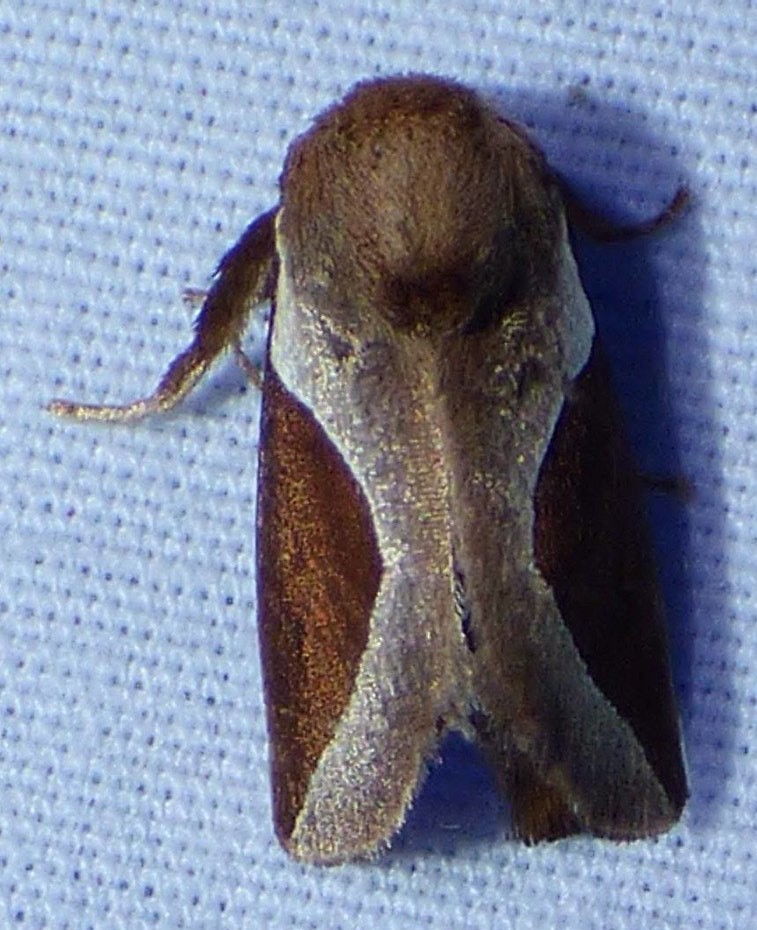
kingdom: Animalia
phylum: Arthropoda
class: Insecta
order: Lepidoptera
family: Limacodidae
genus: Prolimacodes
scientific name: Prolimacodes badia
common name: Skiff moth
